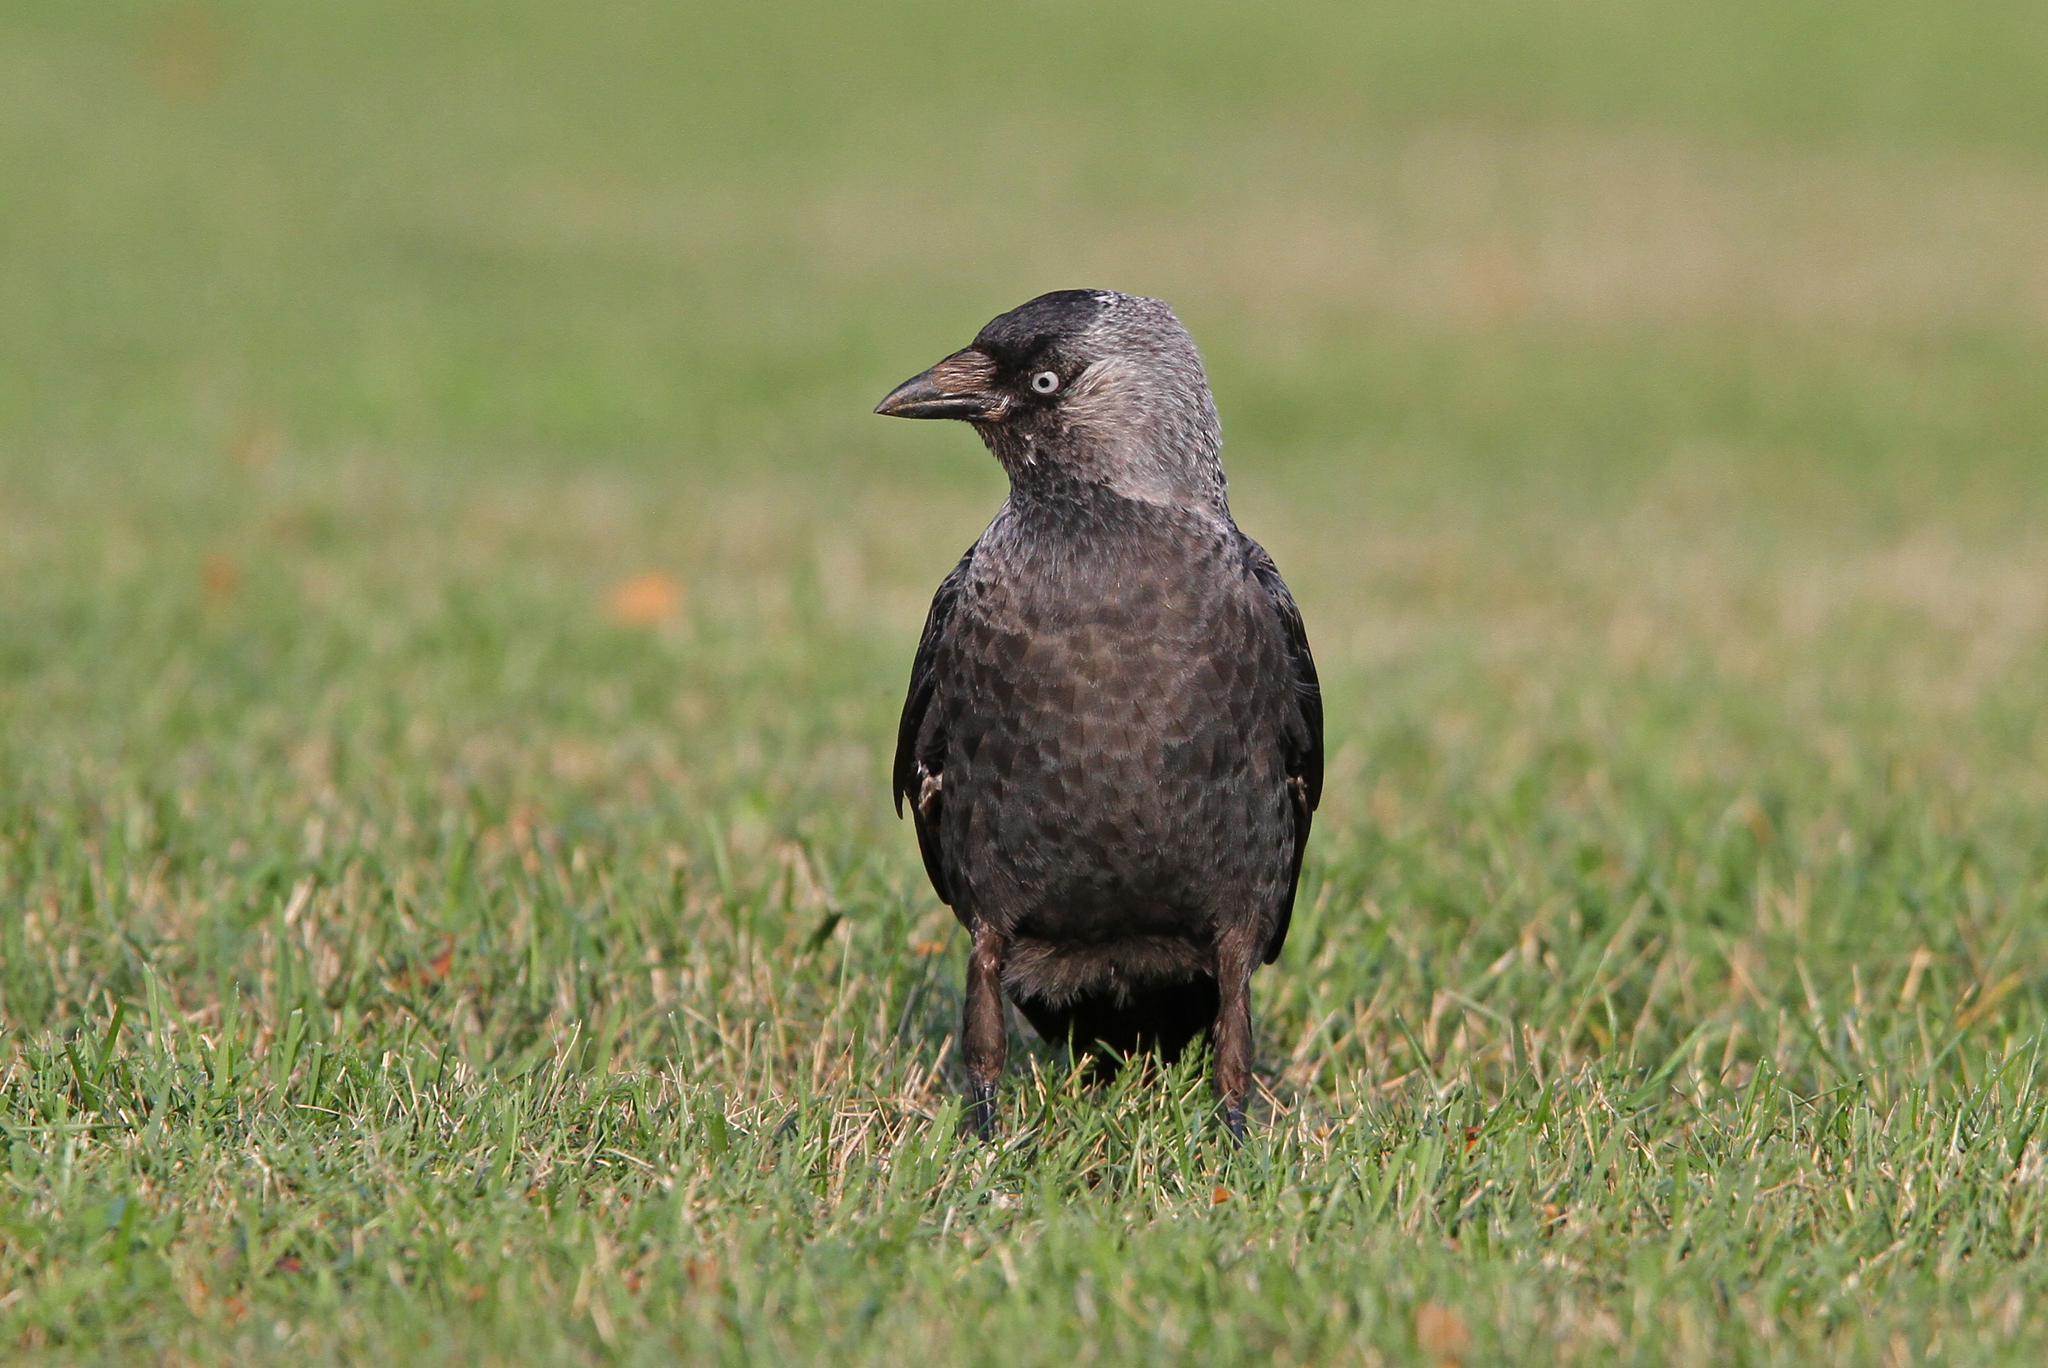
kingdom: Animalia
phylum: Chordata
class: Aves
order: Passeriformes
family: Corvidae
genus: Coloeus
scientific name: Coloeus monedula
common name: Western jackdaw
